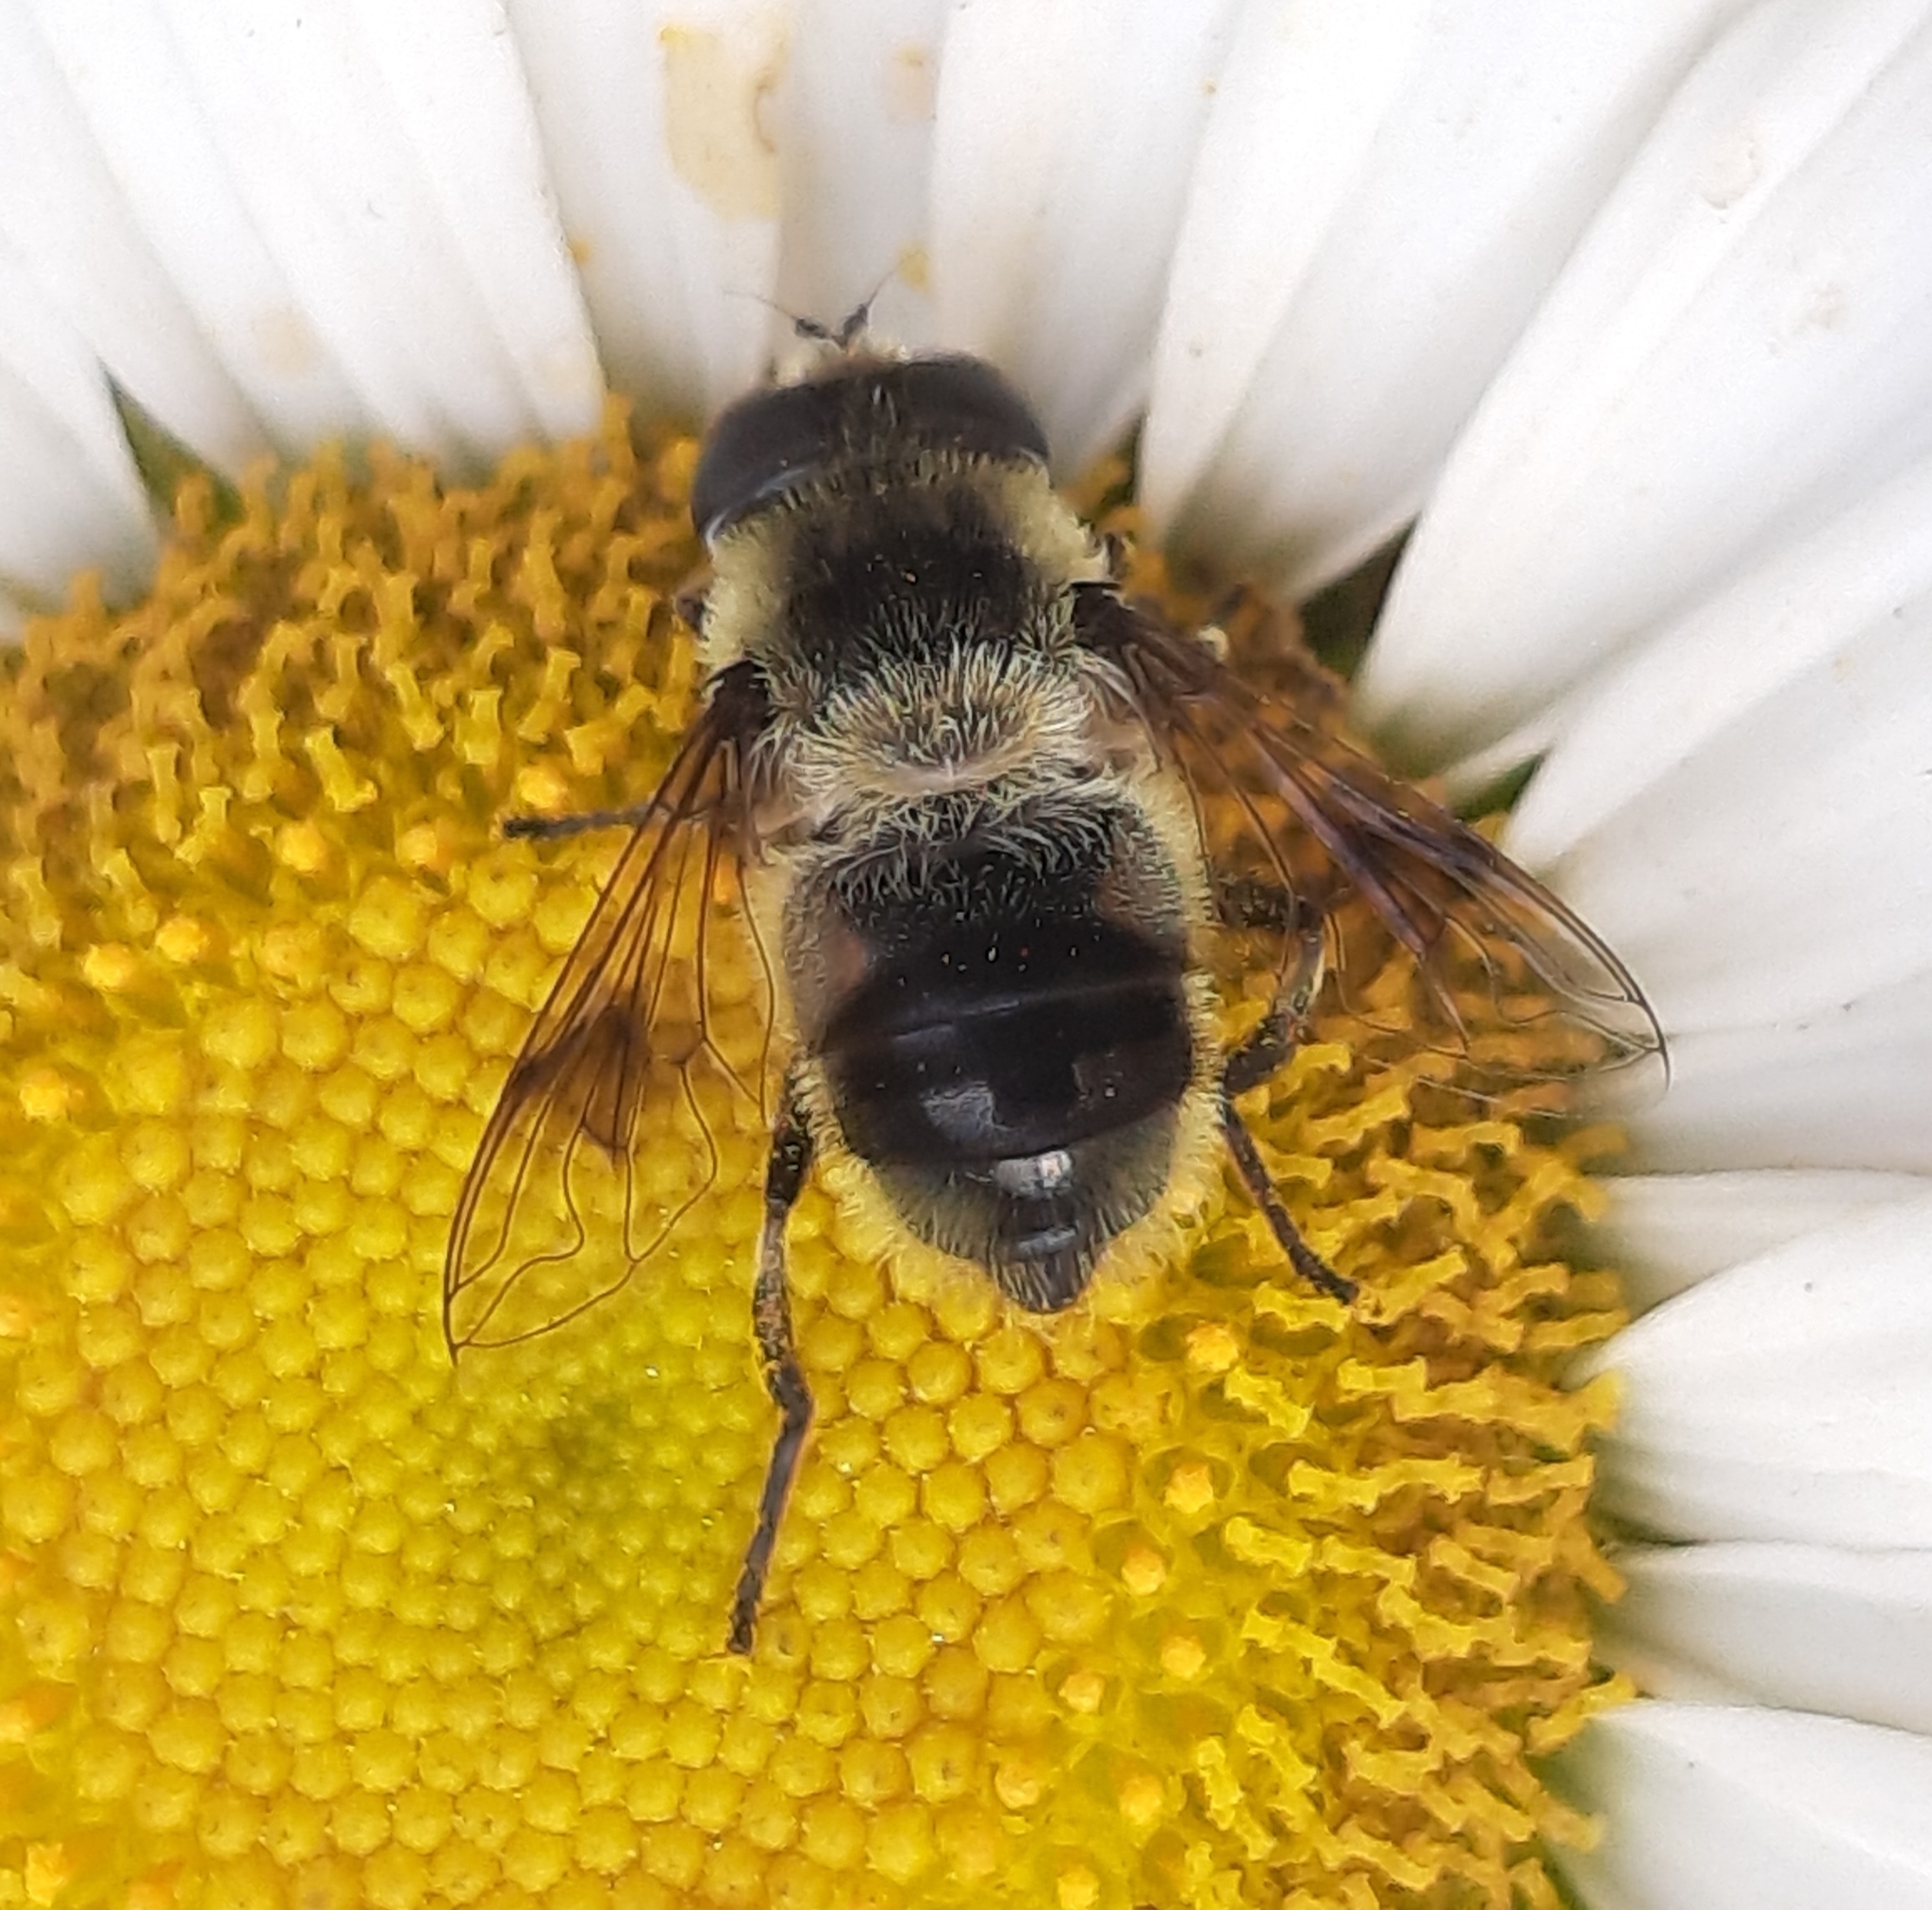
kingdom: Animalia
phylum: Arthropoda
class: Insecta
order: Diptera
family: Syrphidae
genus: Eristalis
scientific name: Eristalis anthophorina
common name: Orange-spotted drone fly
